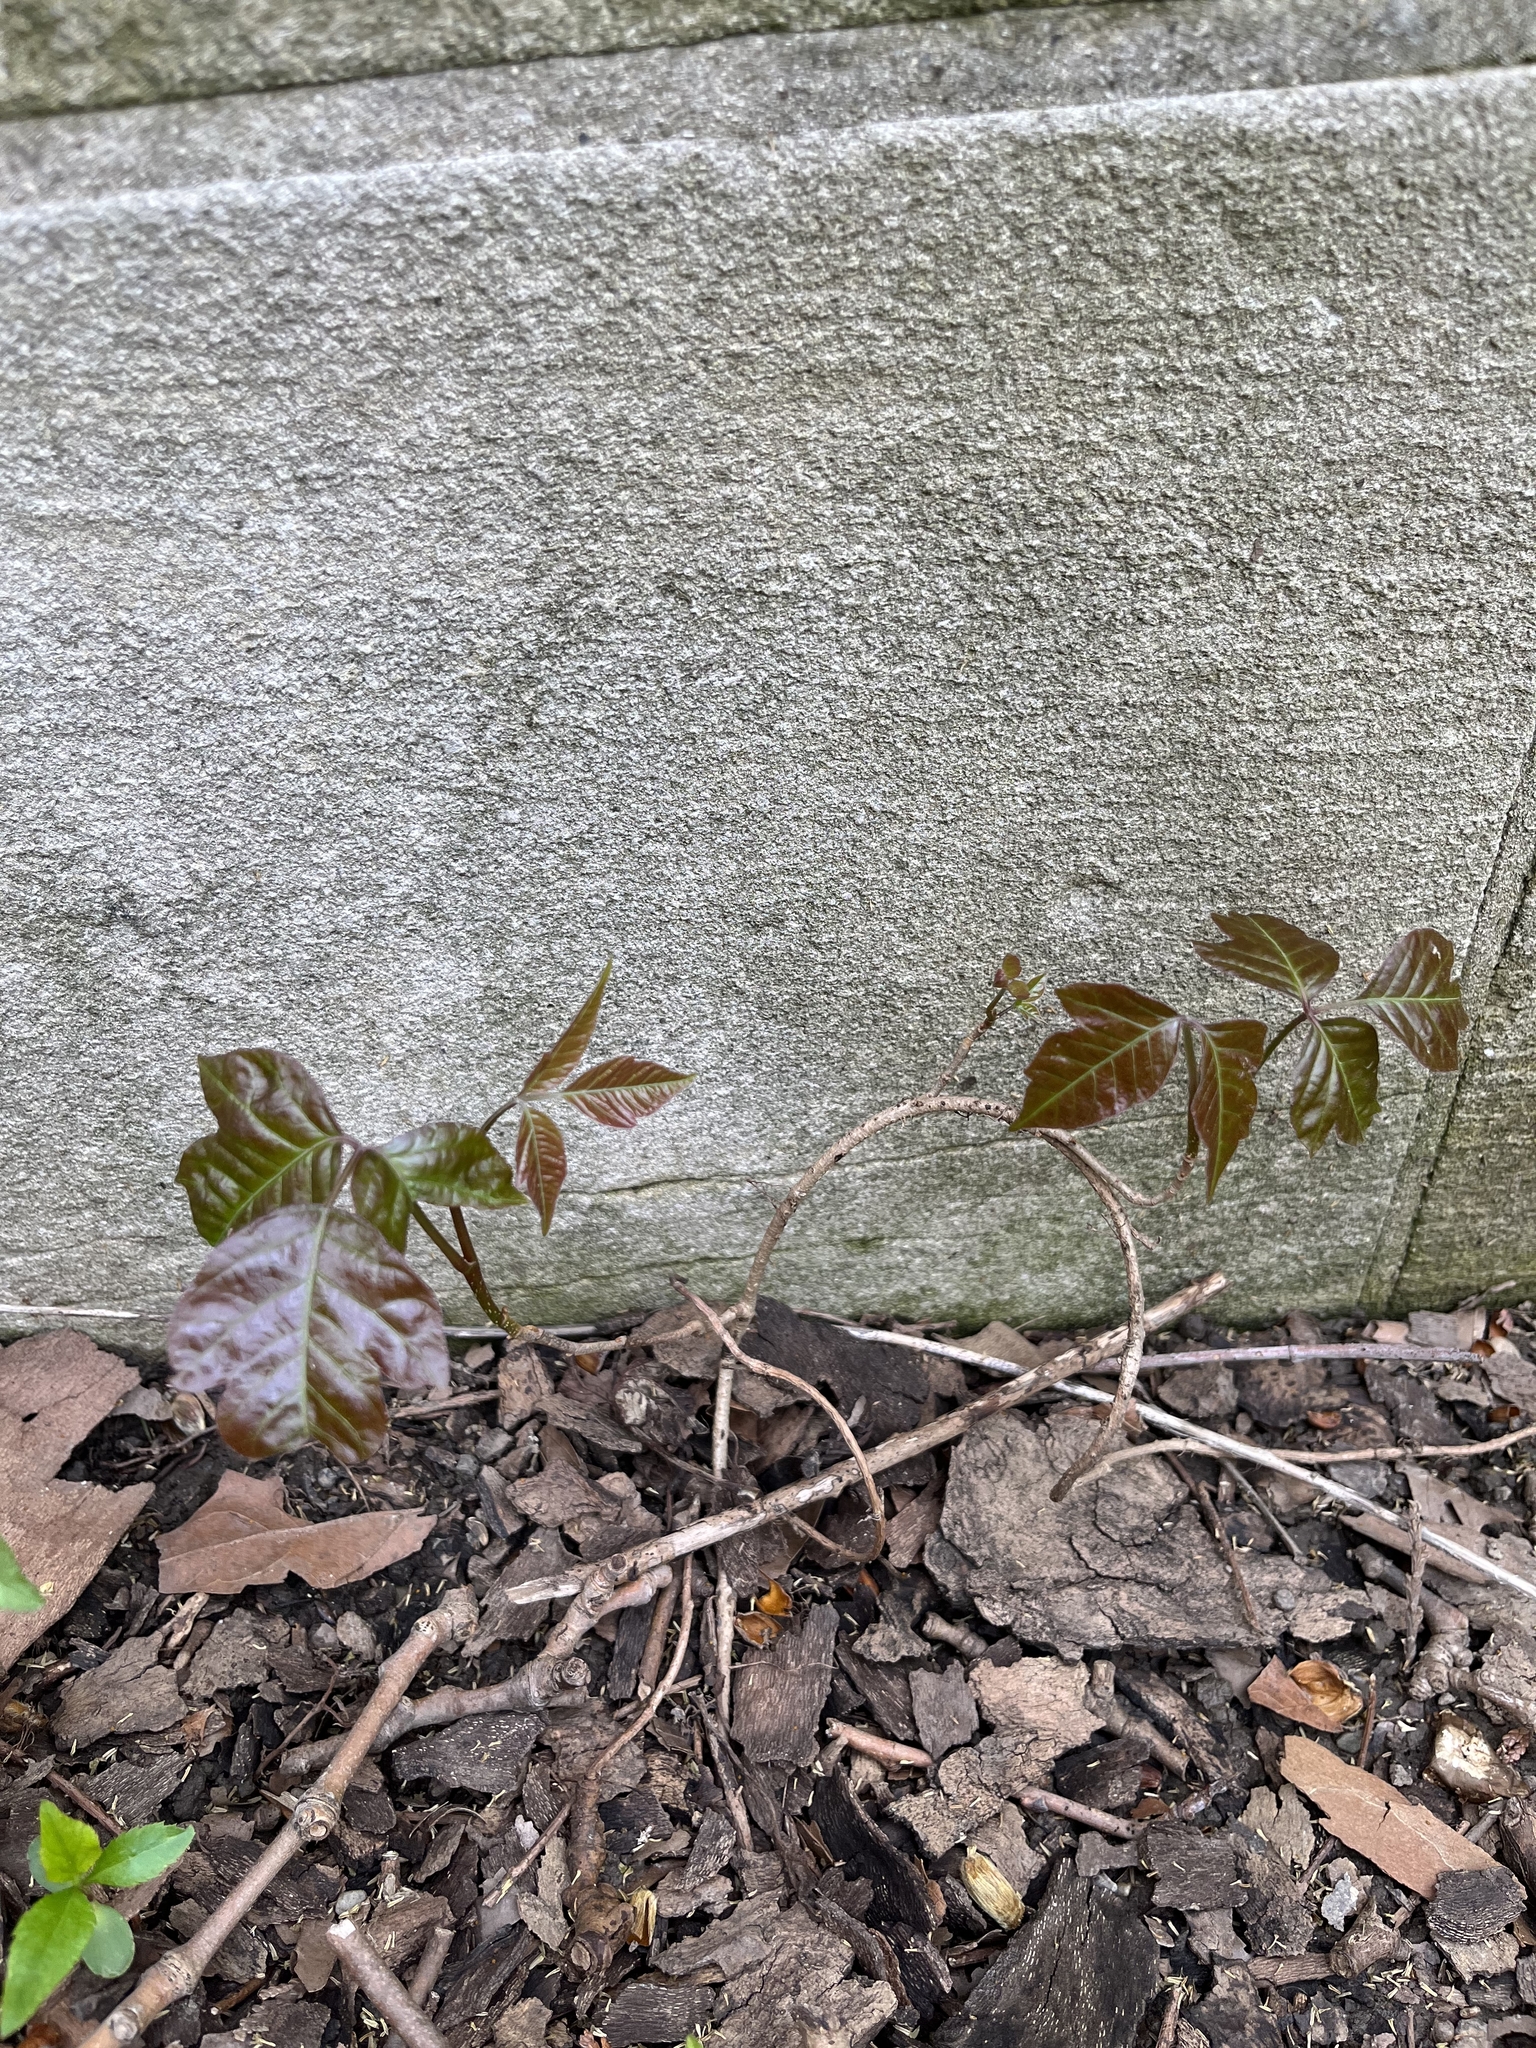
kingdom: Plantae
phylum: Tracheophyta
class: Magnoliopsida
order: Sapindales
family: Anacardiaceae
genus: Toxicodendron
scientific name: Toxicodendron radicans
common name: Poison ivy
